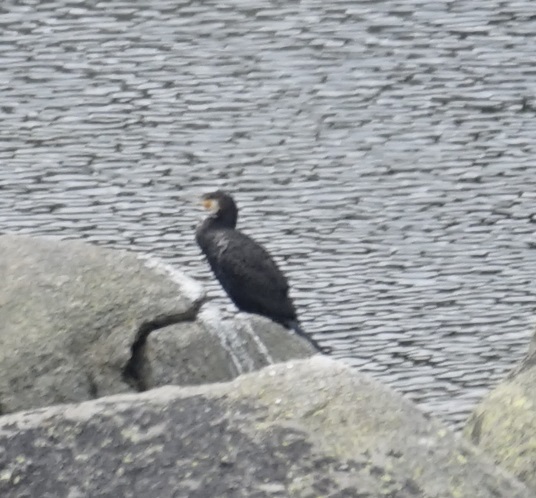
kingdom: Animalia
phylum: Chordata
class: Aves
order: Suliformes
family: Phalacrocoracidae
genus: Phalacrocorax
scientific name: Phalacrocorax carbo
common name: Great cormorant
